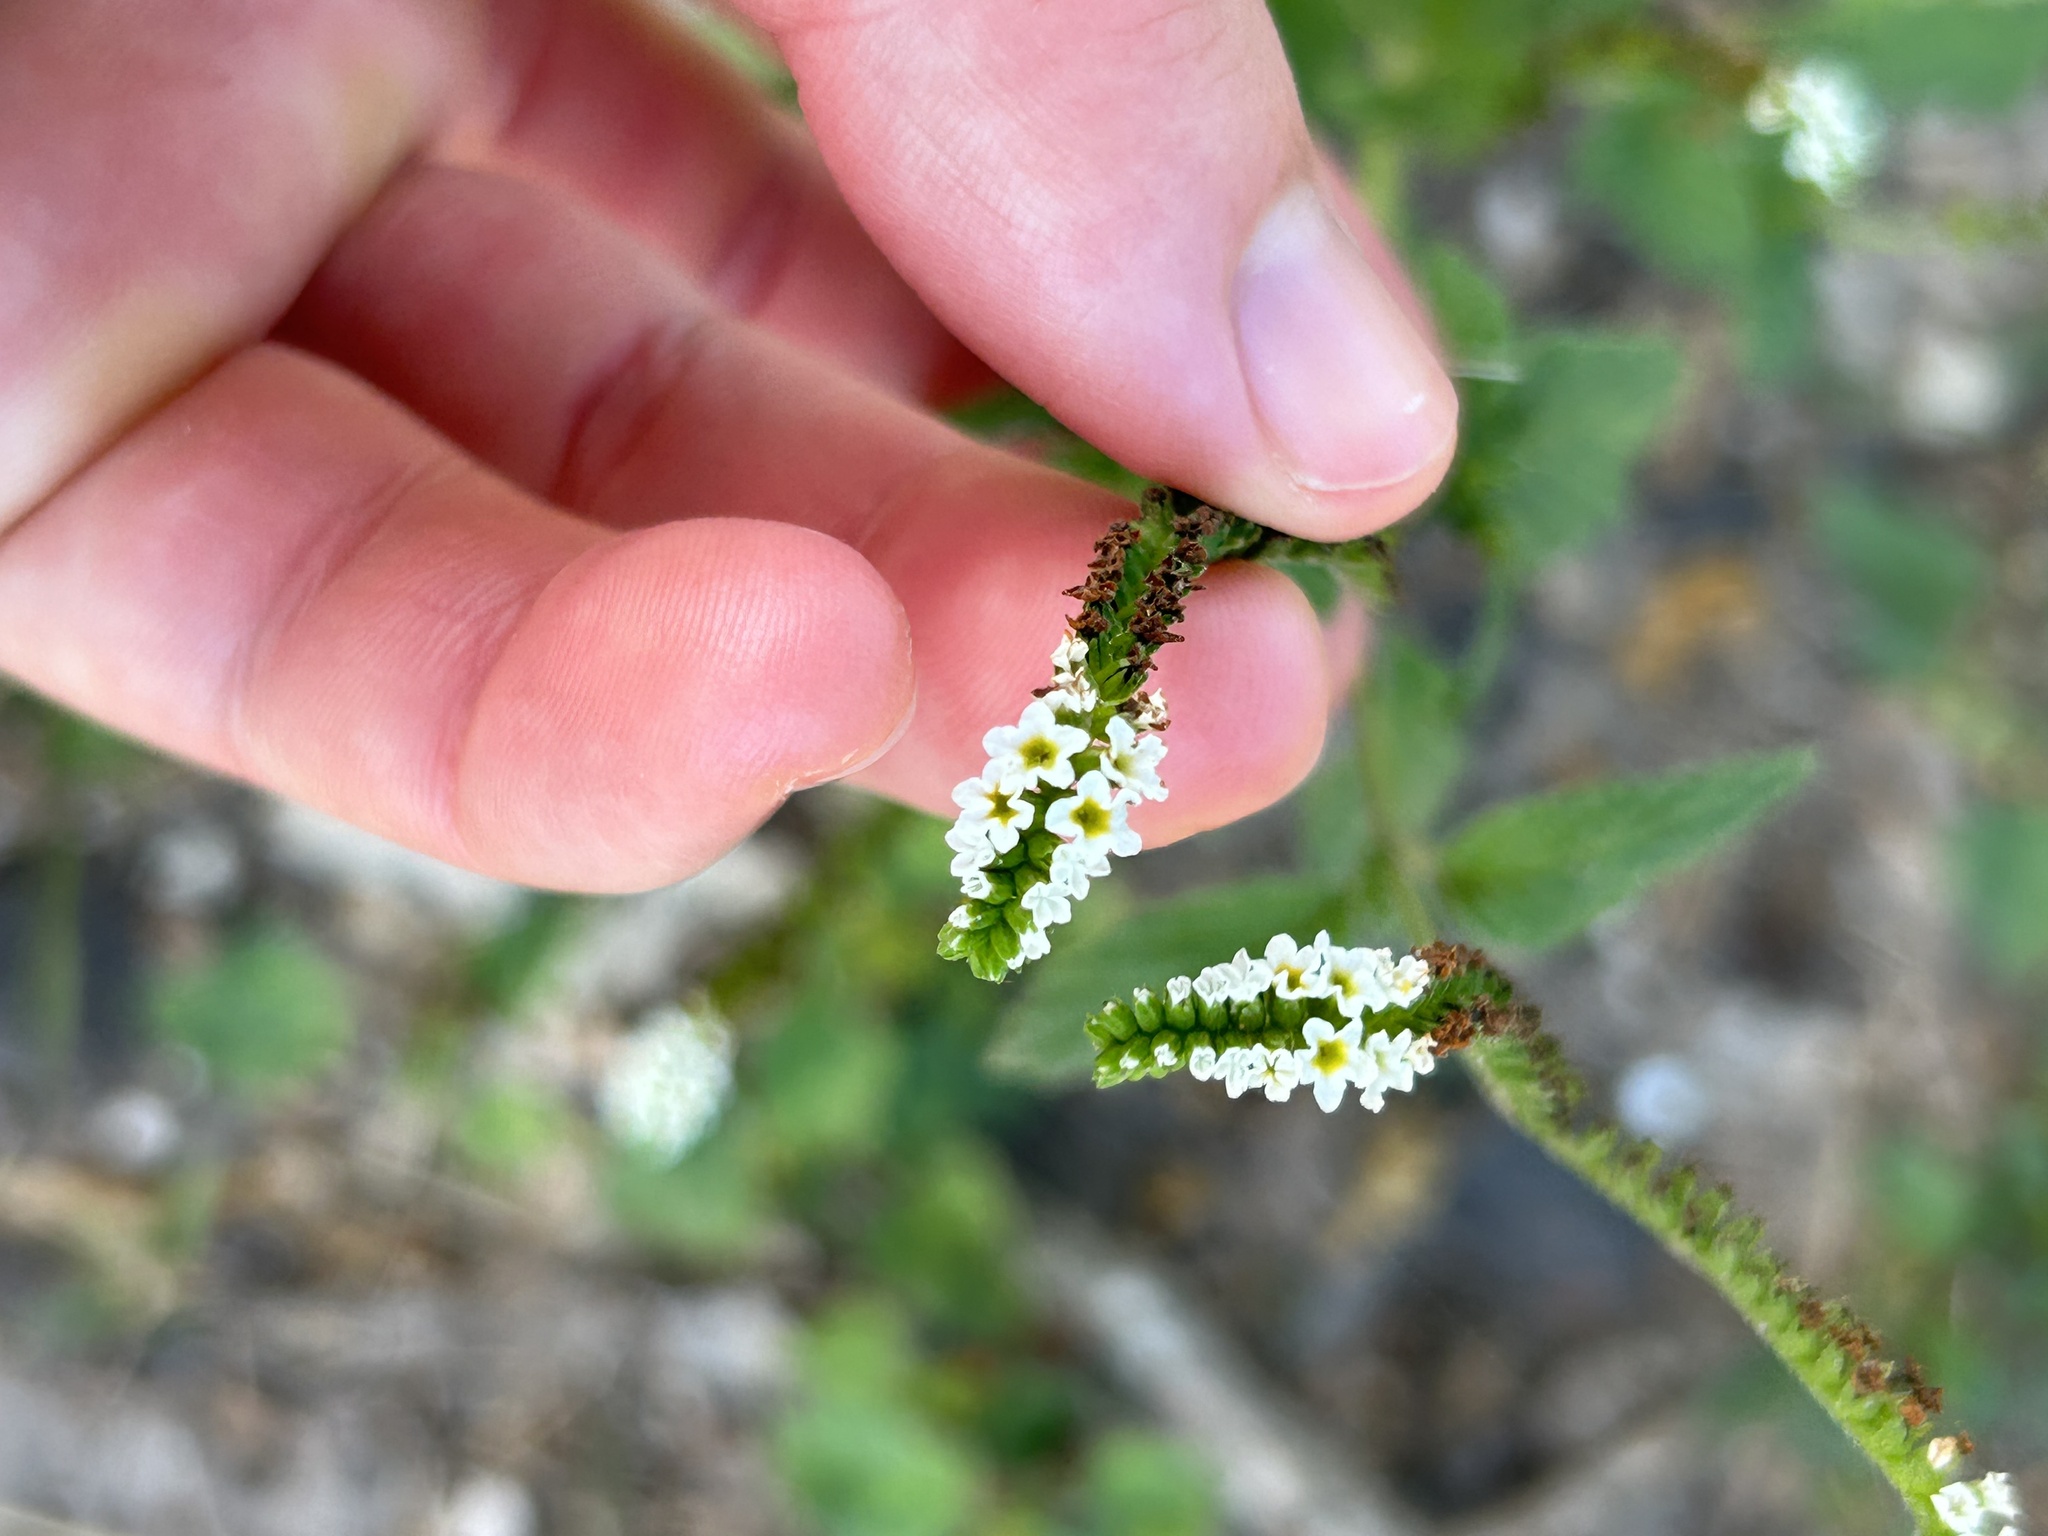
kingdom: Plantae
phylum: Tracheophyta
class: Magnoliopsida
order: Boraginales
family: Heliotropiaceae
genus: Heliotropium
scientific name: Heliotropium angiospermum
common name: Eye bright
